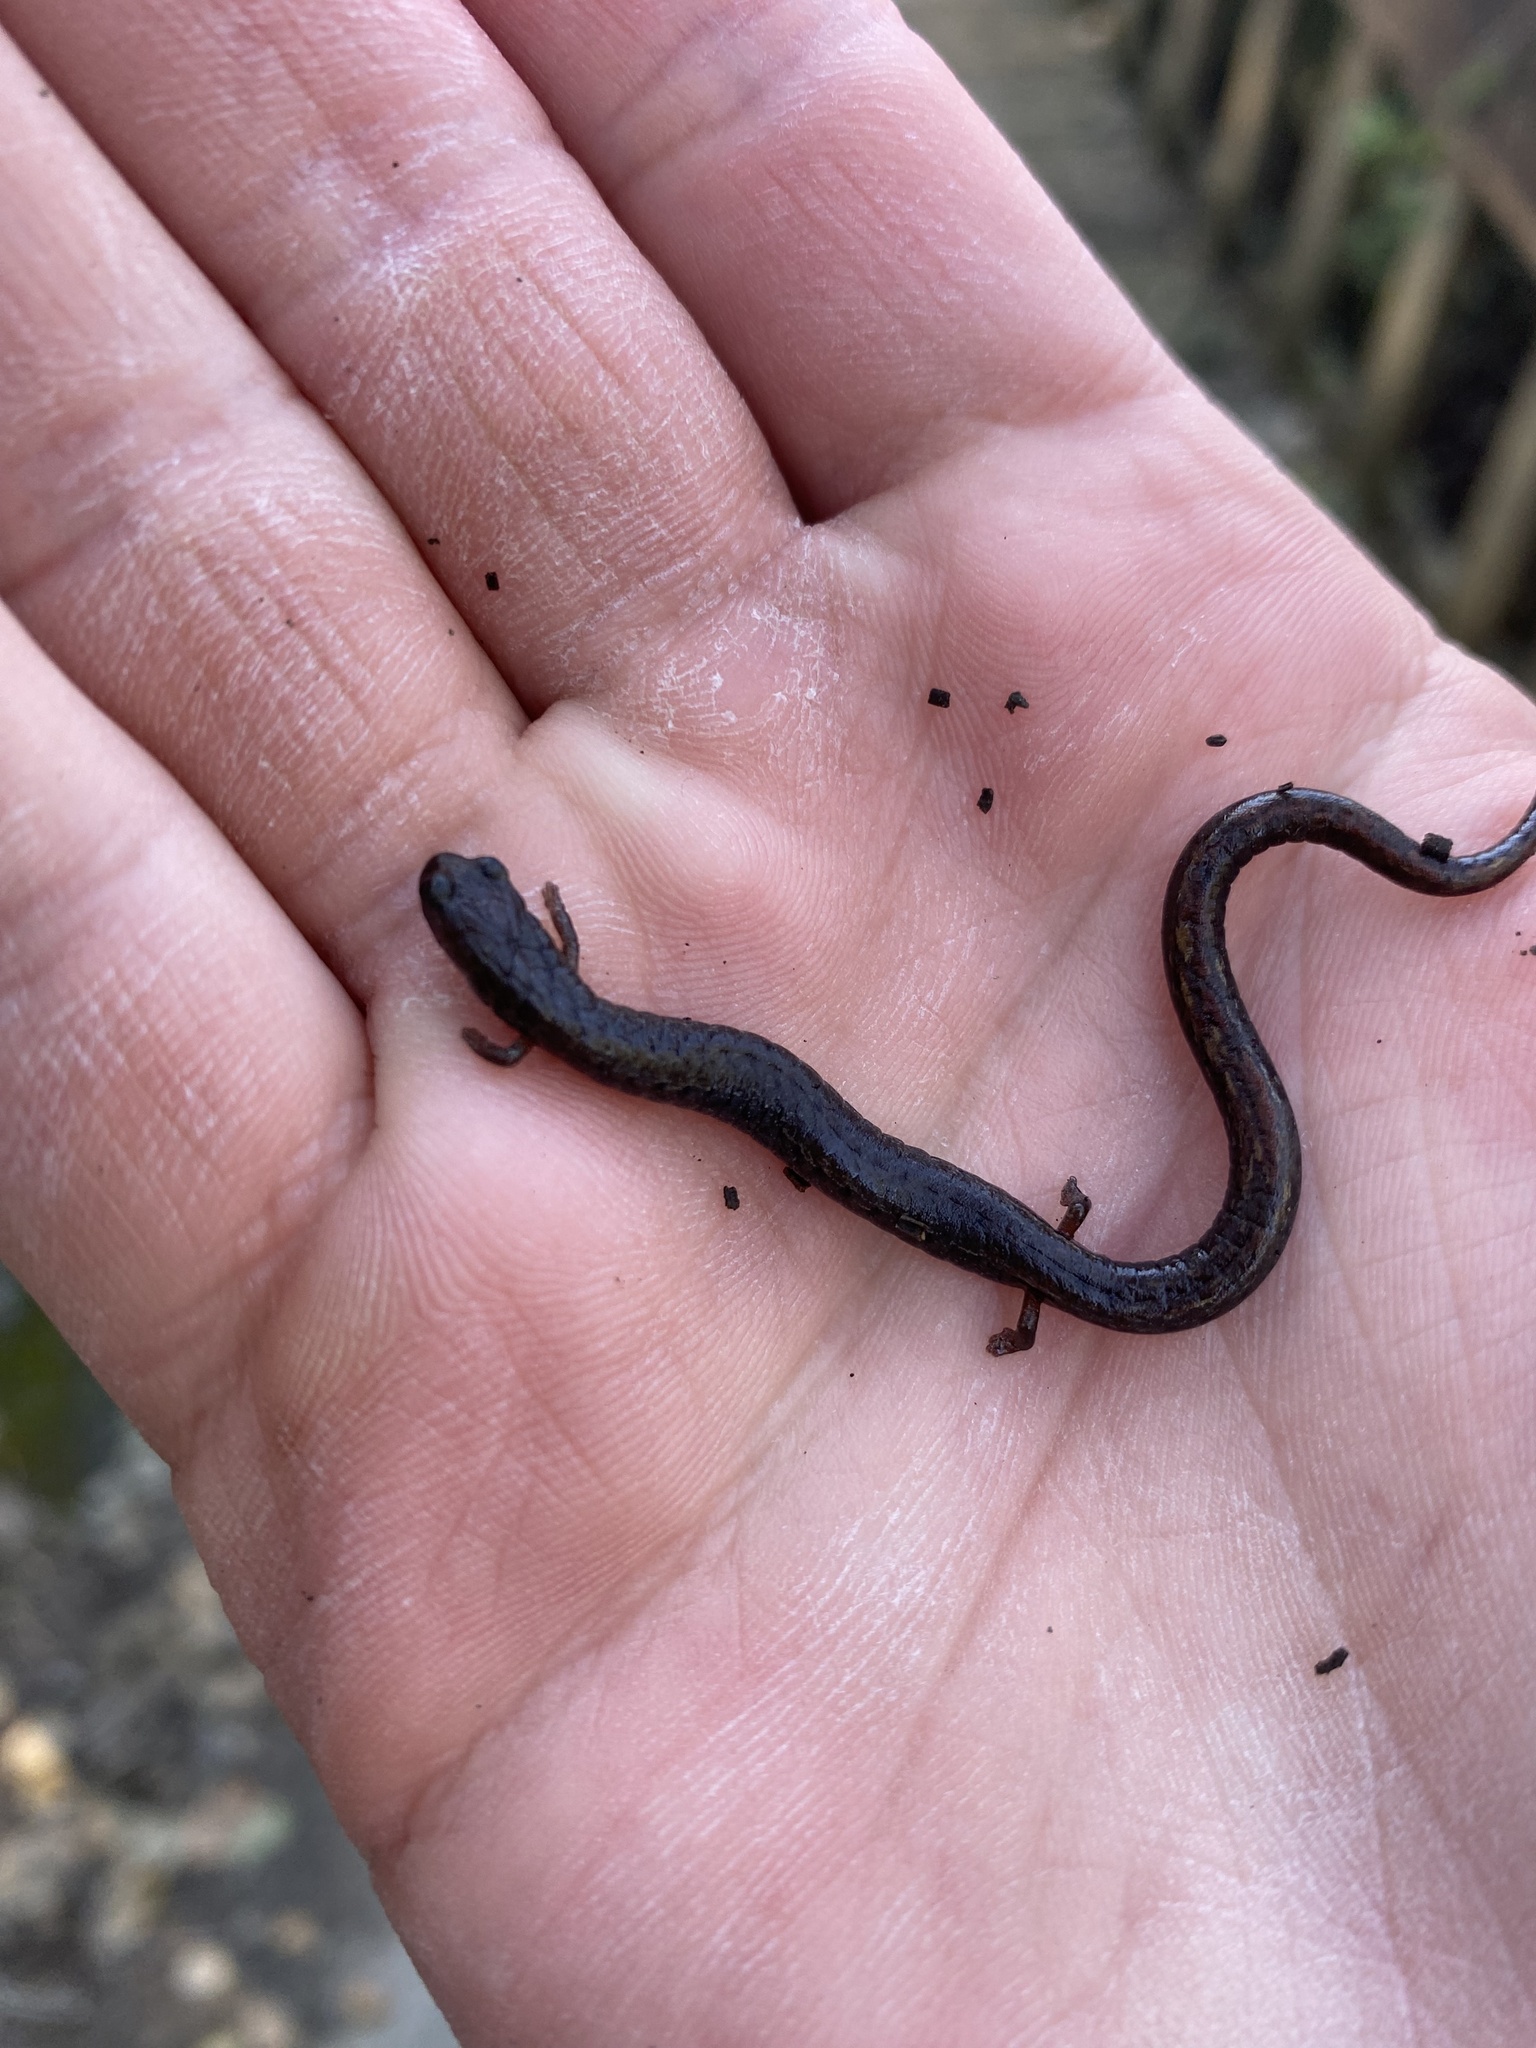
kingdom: Animalia
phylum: Chordata
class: Amphibia
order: Caudata
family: Plethodontidae
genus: Batrachoseps
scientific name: Batrachoseps attenuatus
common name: California slender salamander
